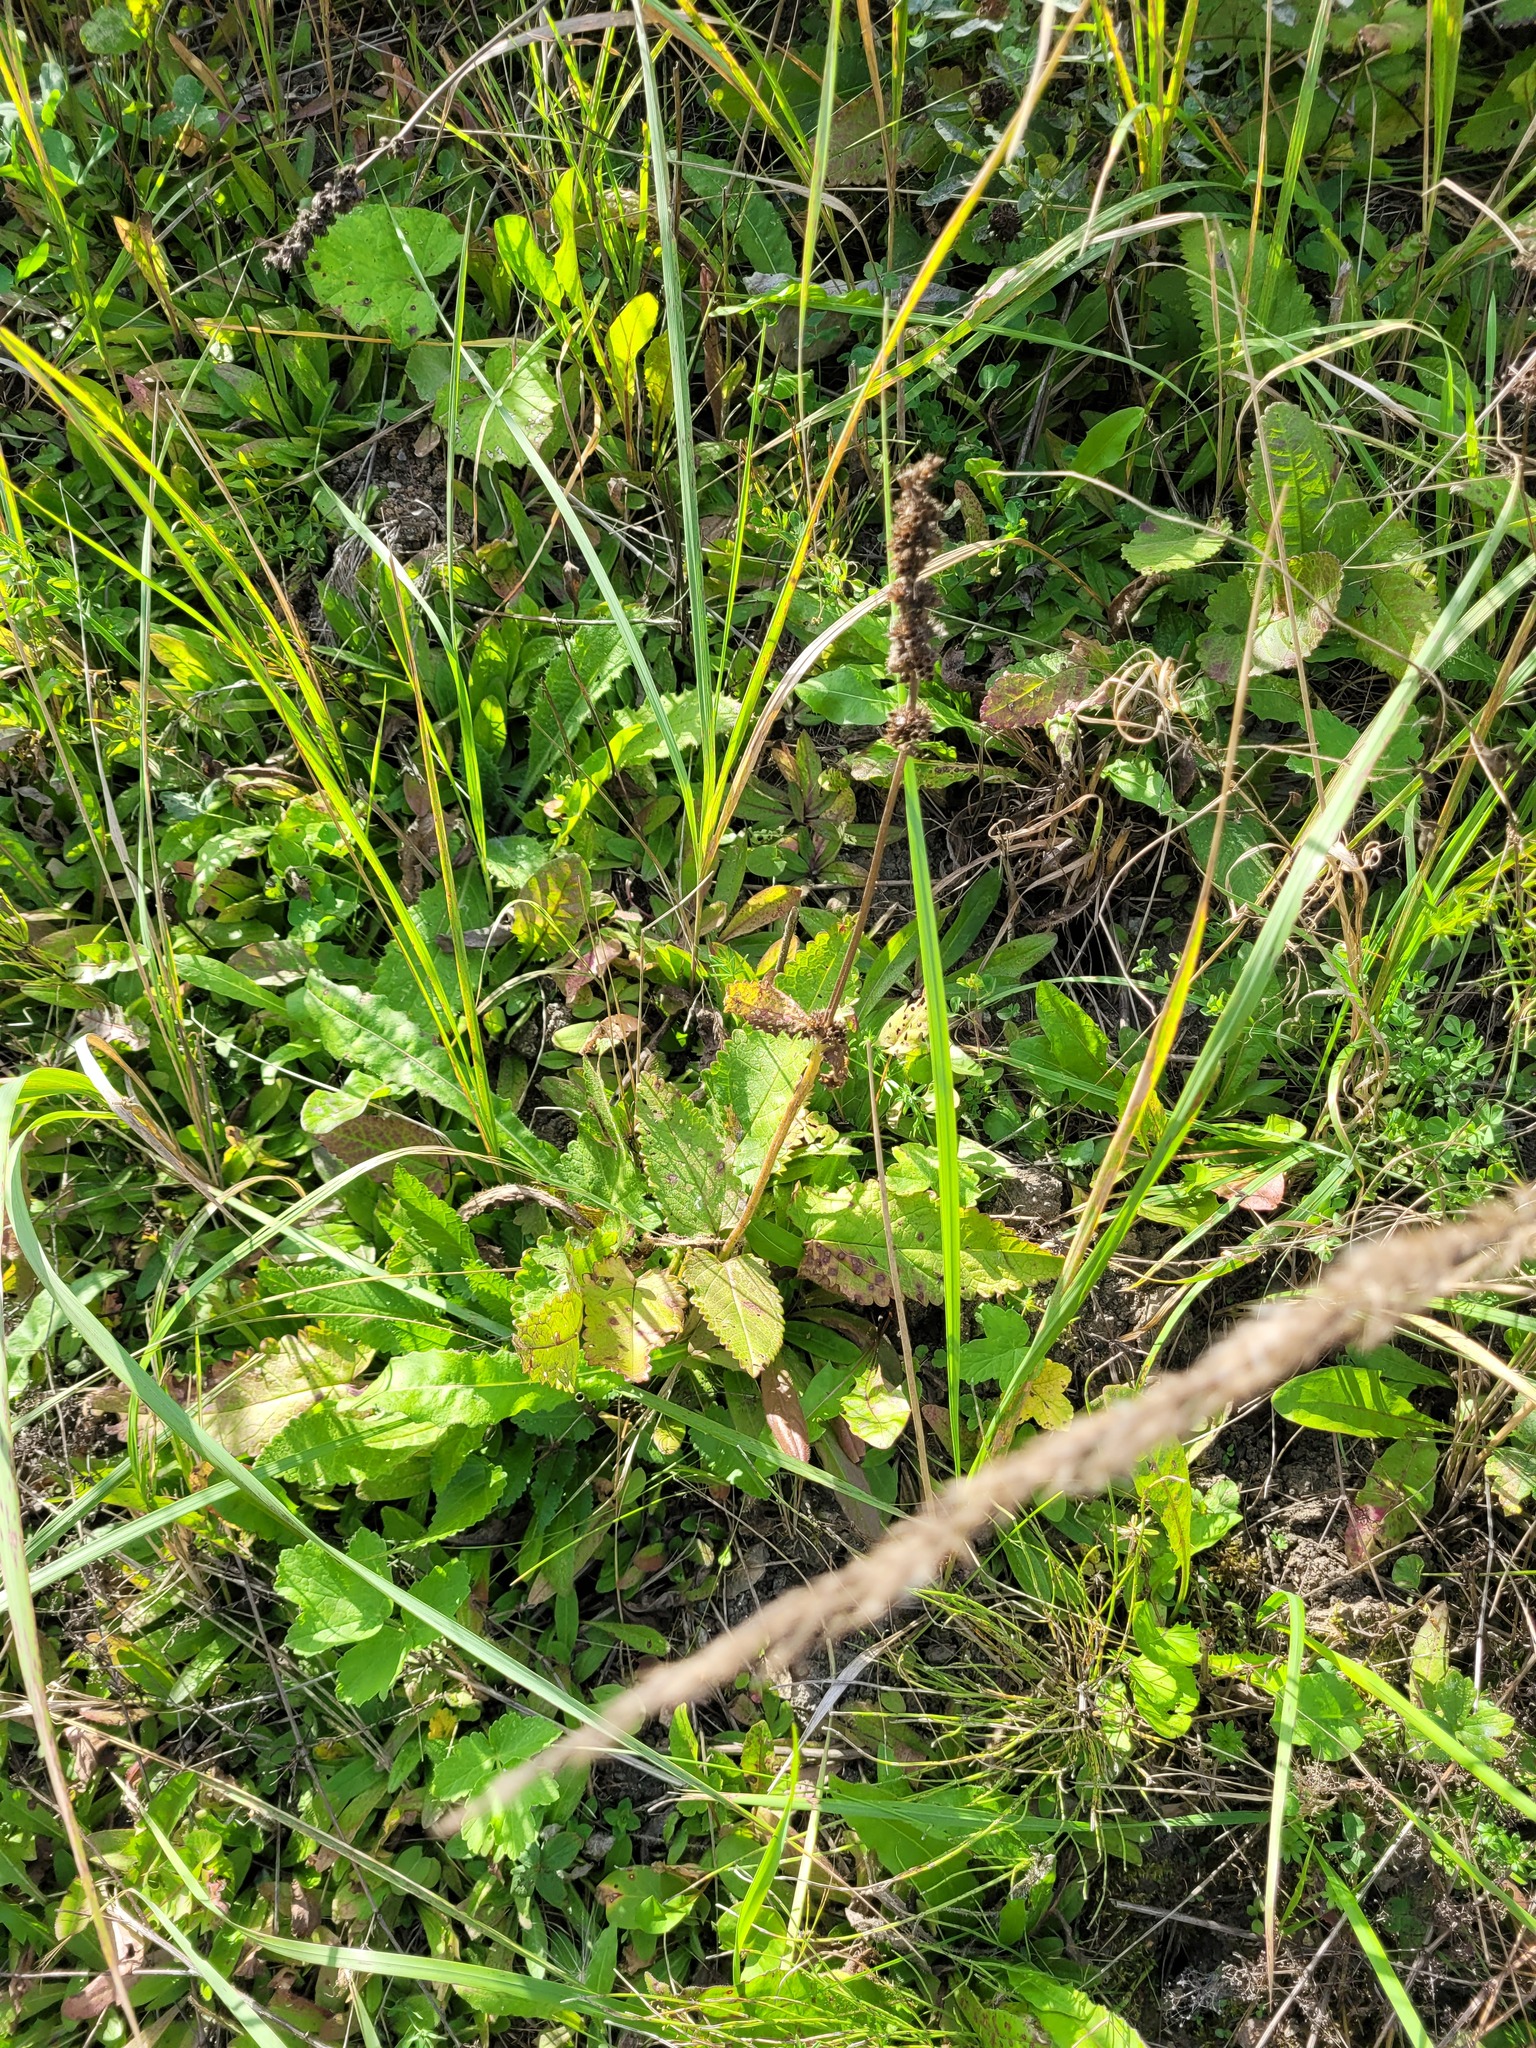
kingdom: Plantae
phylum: Tracheophyta
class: Magnoliopsida
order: Lamiales
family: Lamiaceae
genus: Betonica
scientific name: Betonica officinalis
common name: Bishop's-wort
